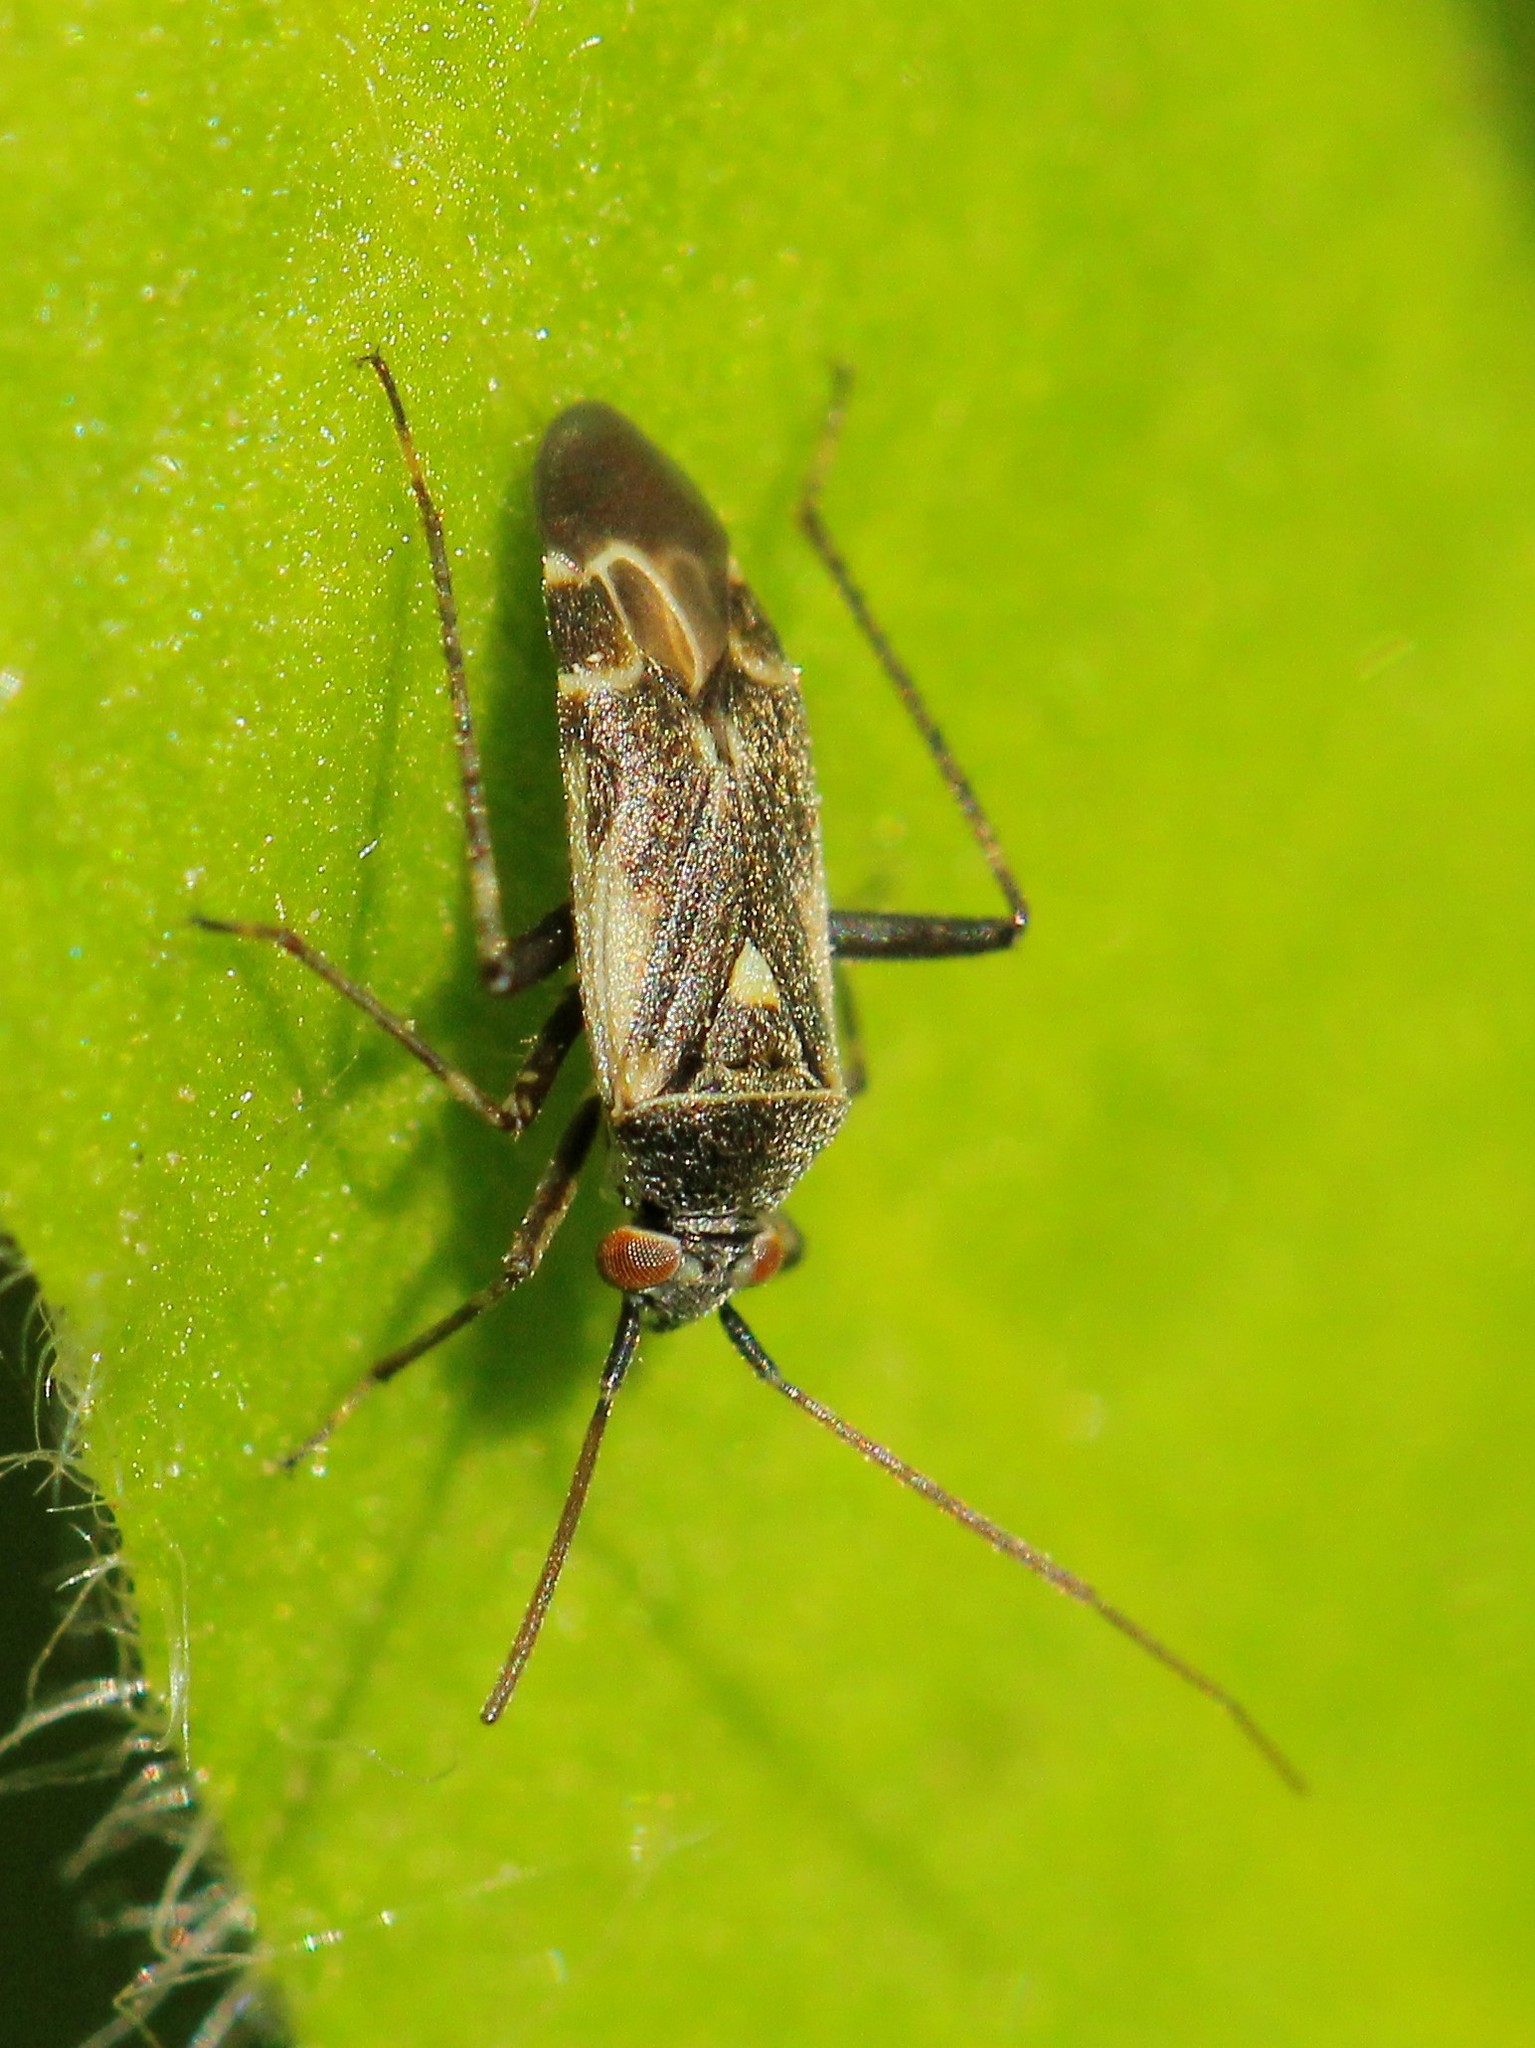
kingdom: Animalia
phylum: Arthropoda
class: Insecta
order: Hemiptera
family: Miridae
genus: Polymerus
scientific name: Polymerus cognatus
